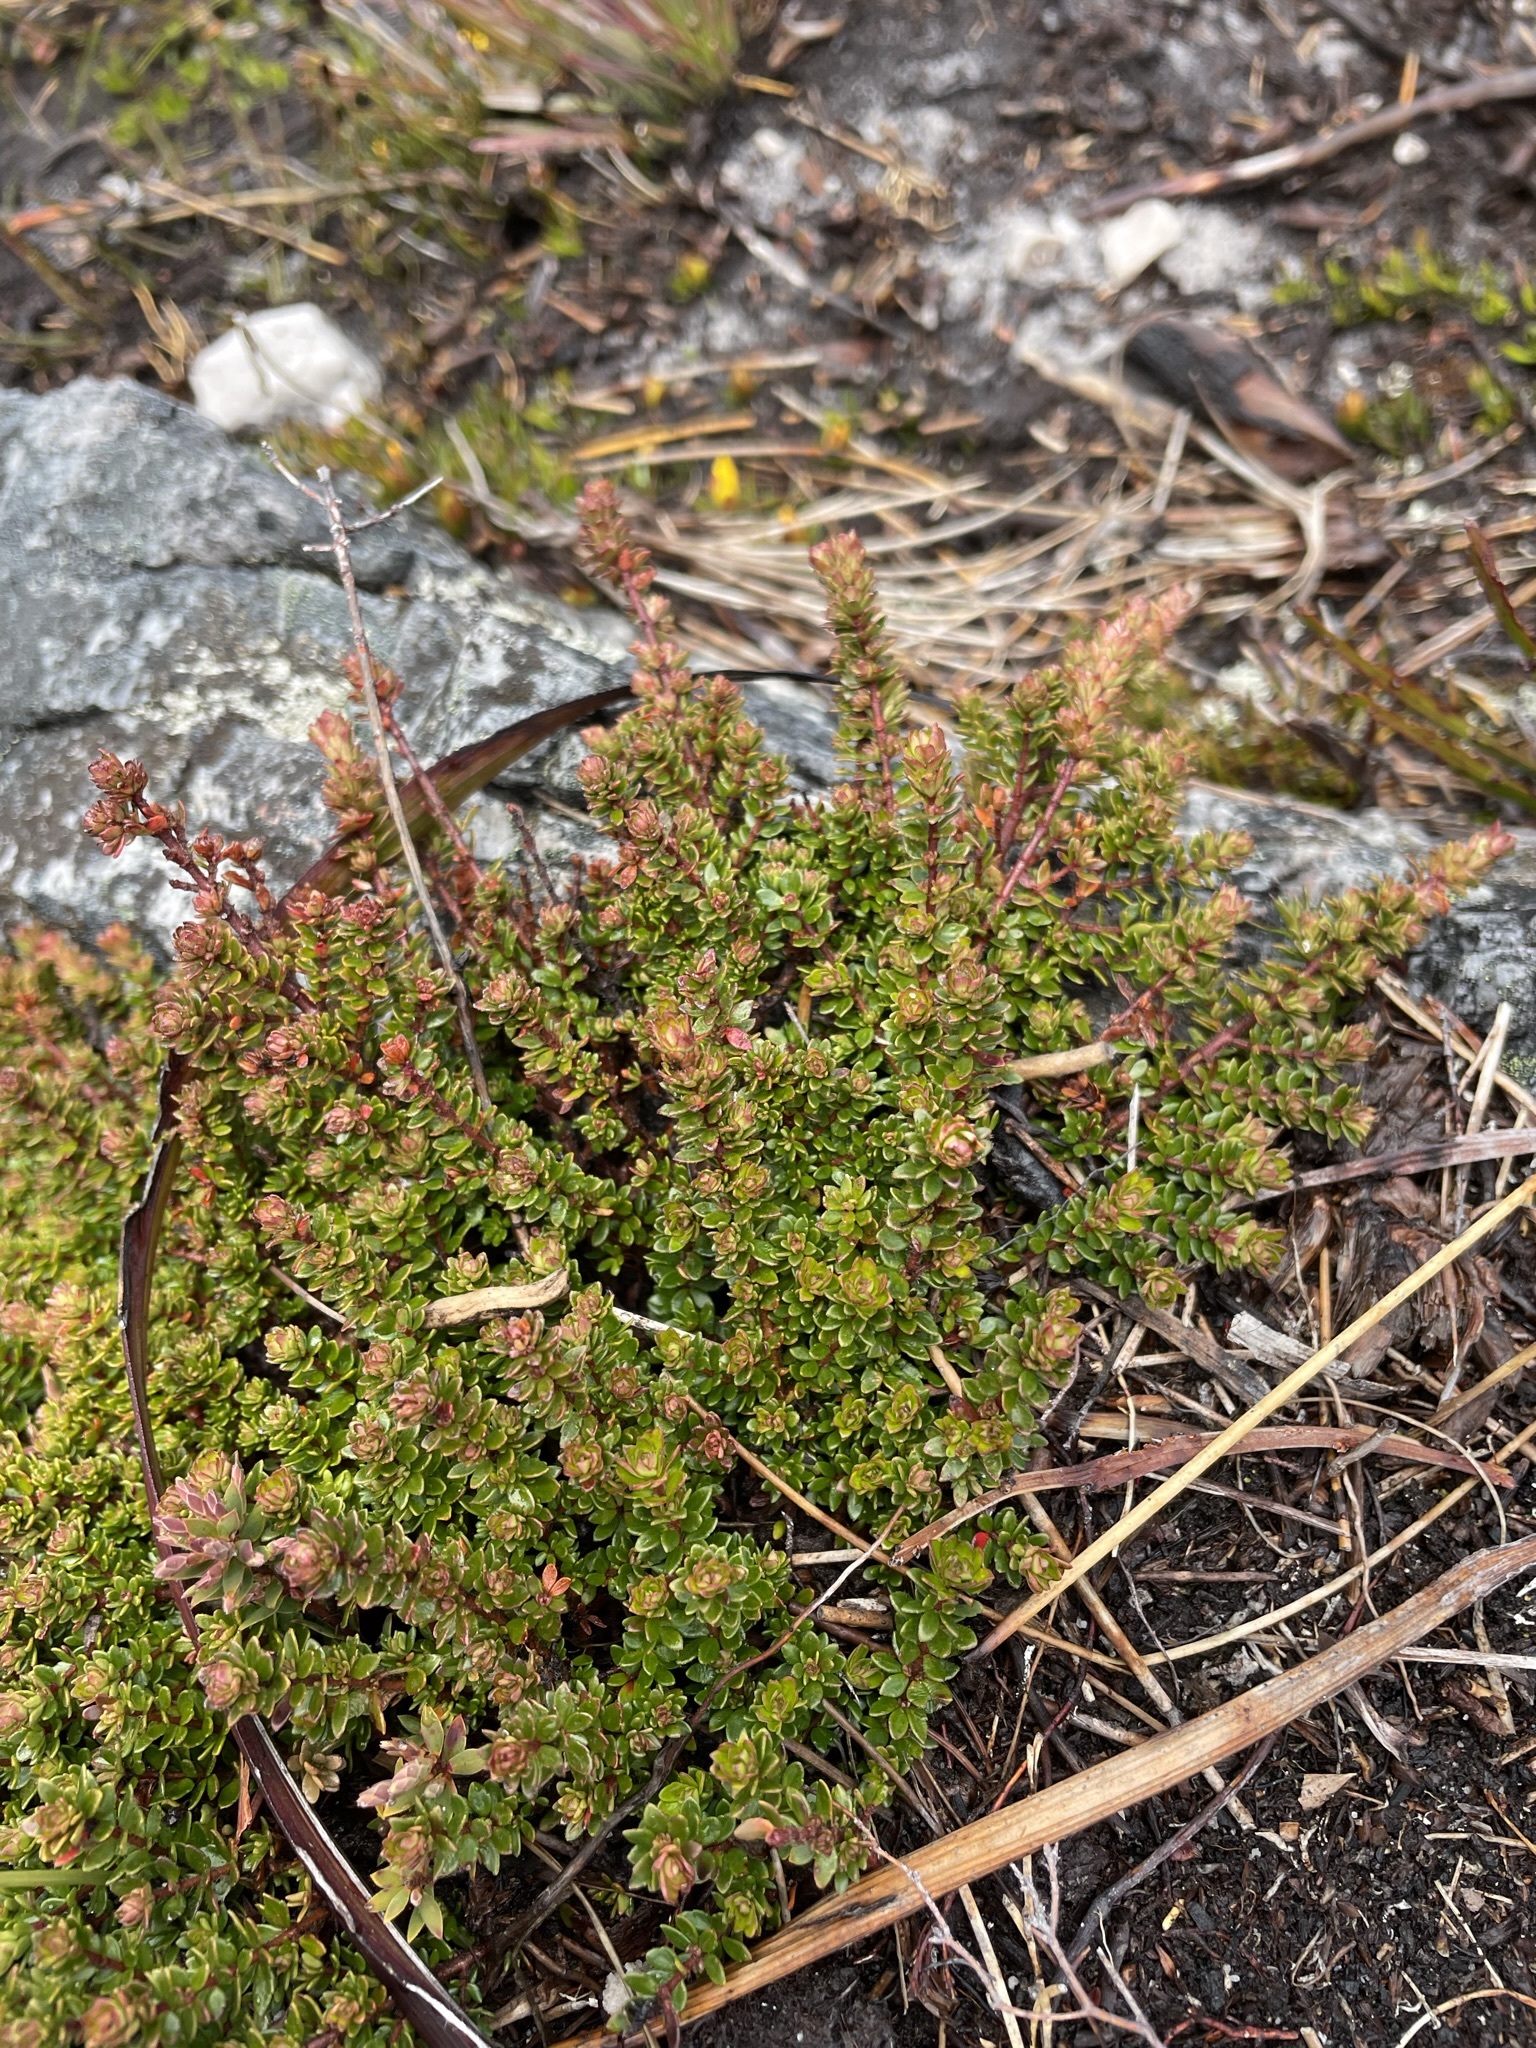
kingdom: Plantae
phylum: Tracheophyta
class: Magnoliopsida
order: Oxalidales
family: Cunoniaceae
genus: Bauera
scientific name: Bauera rubioides
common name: River-rose
